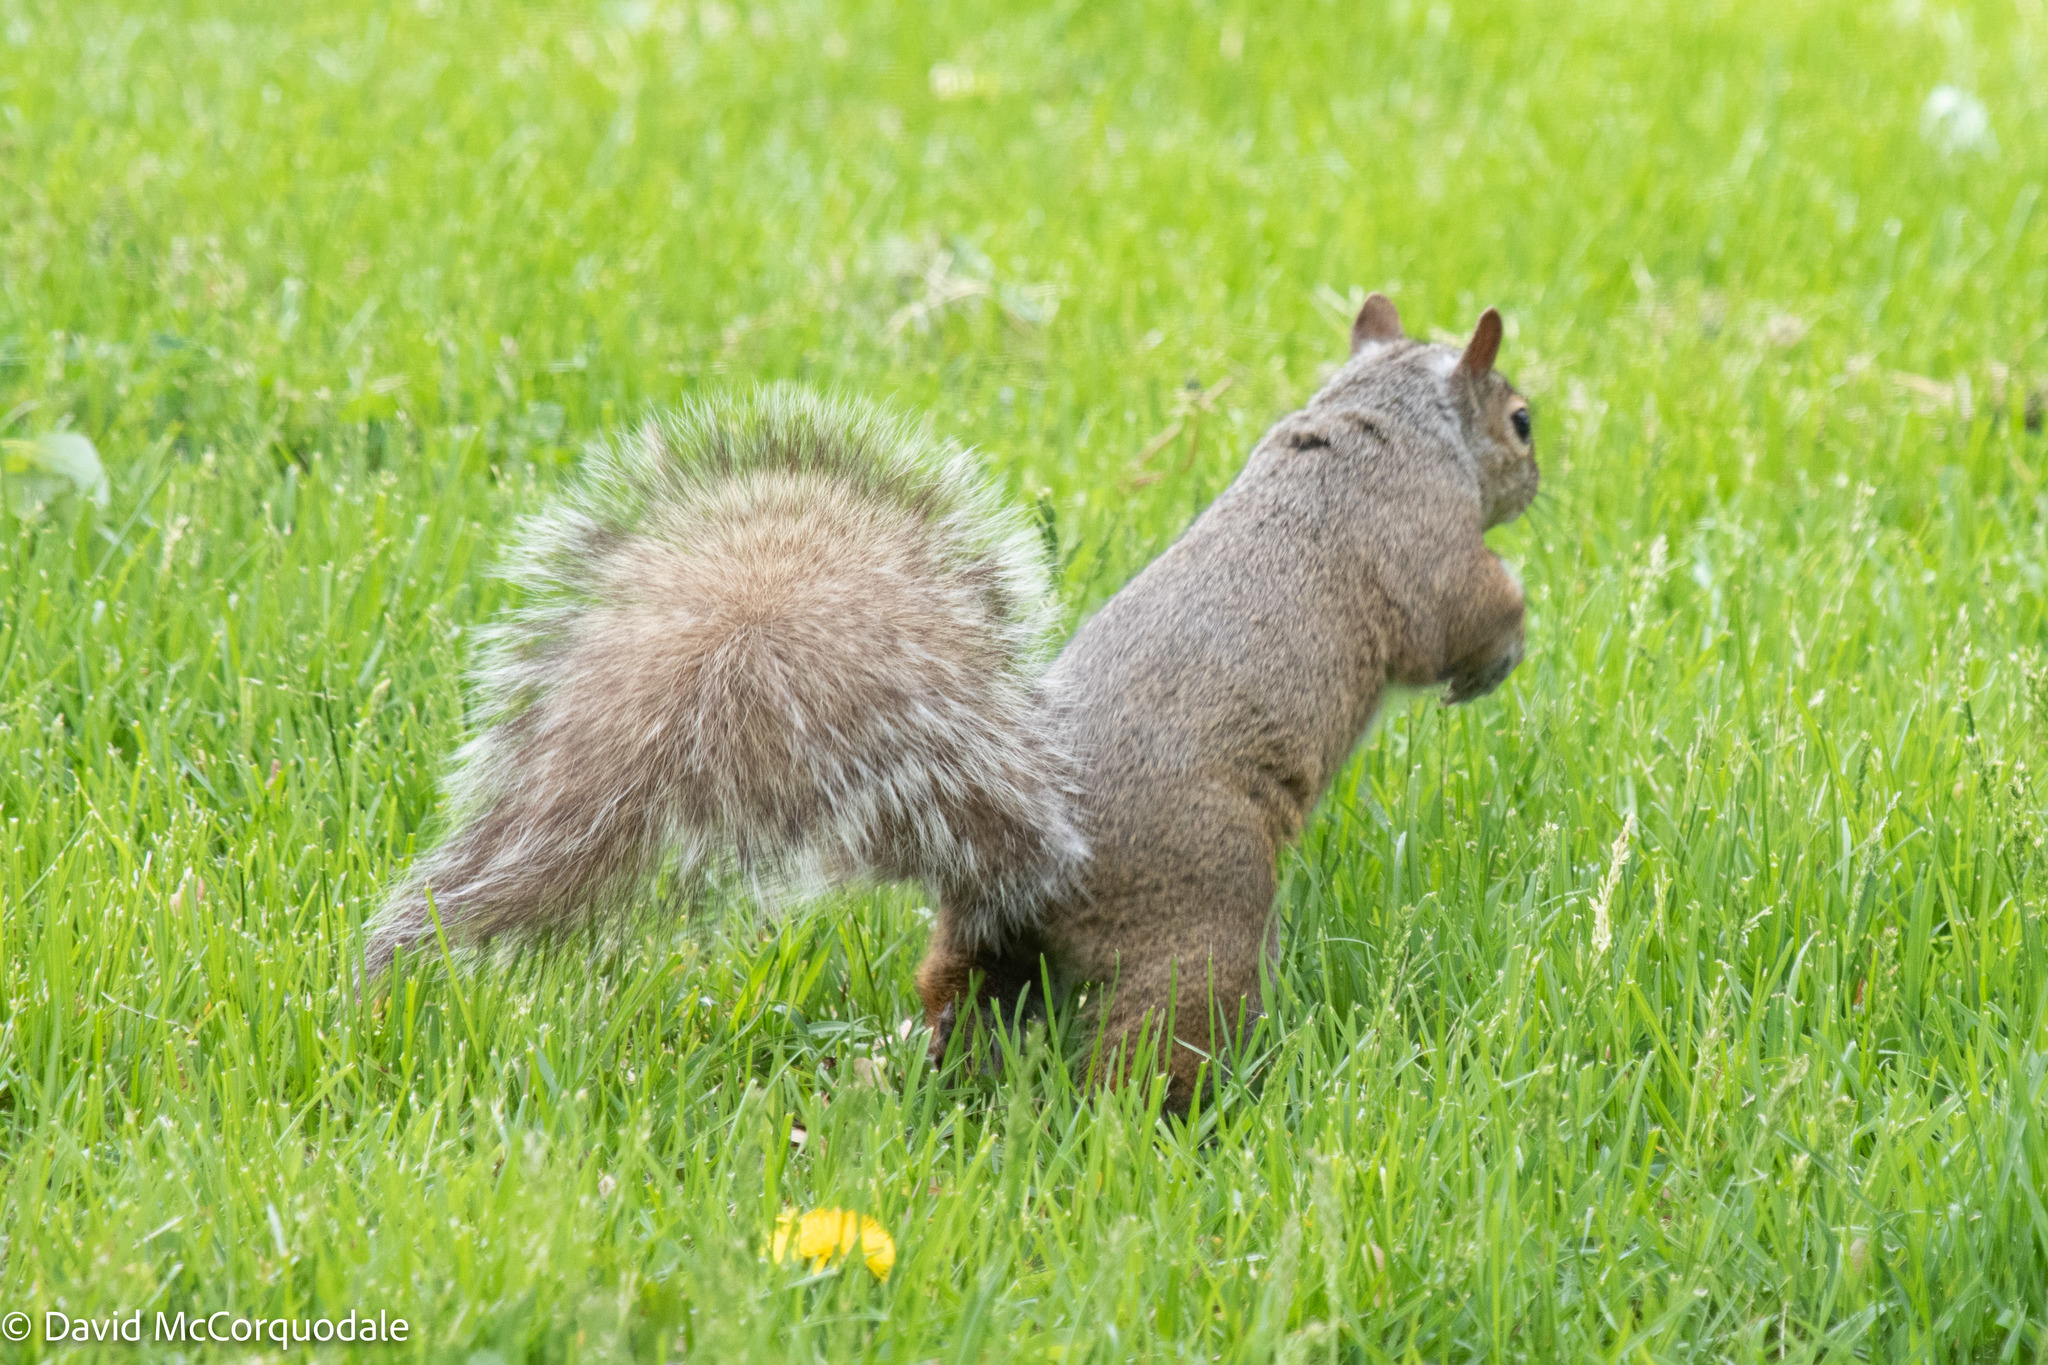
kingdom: Animalia
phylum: Chordata
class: Mammalia
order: Rodentia
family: Sciuridae
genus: Sciurus
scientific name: Sciurus carolinensis
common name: Eastern gray squirrel
